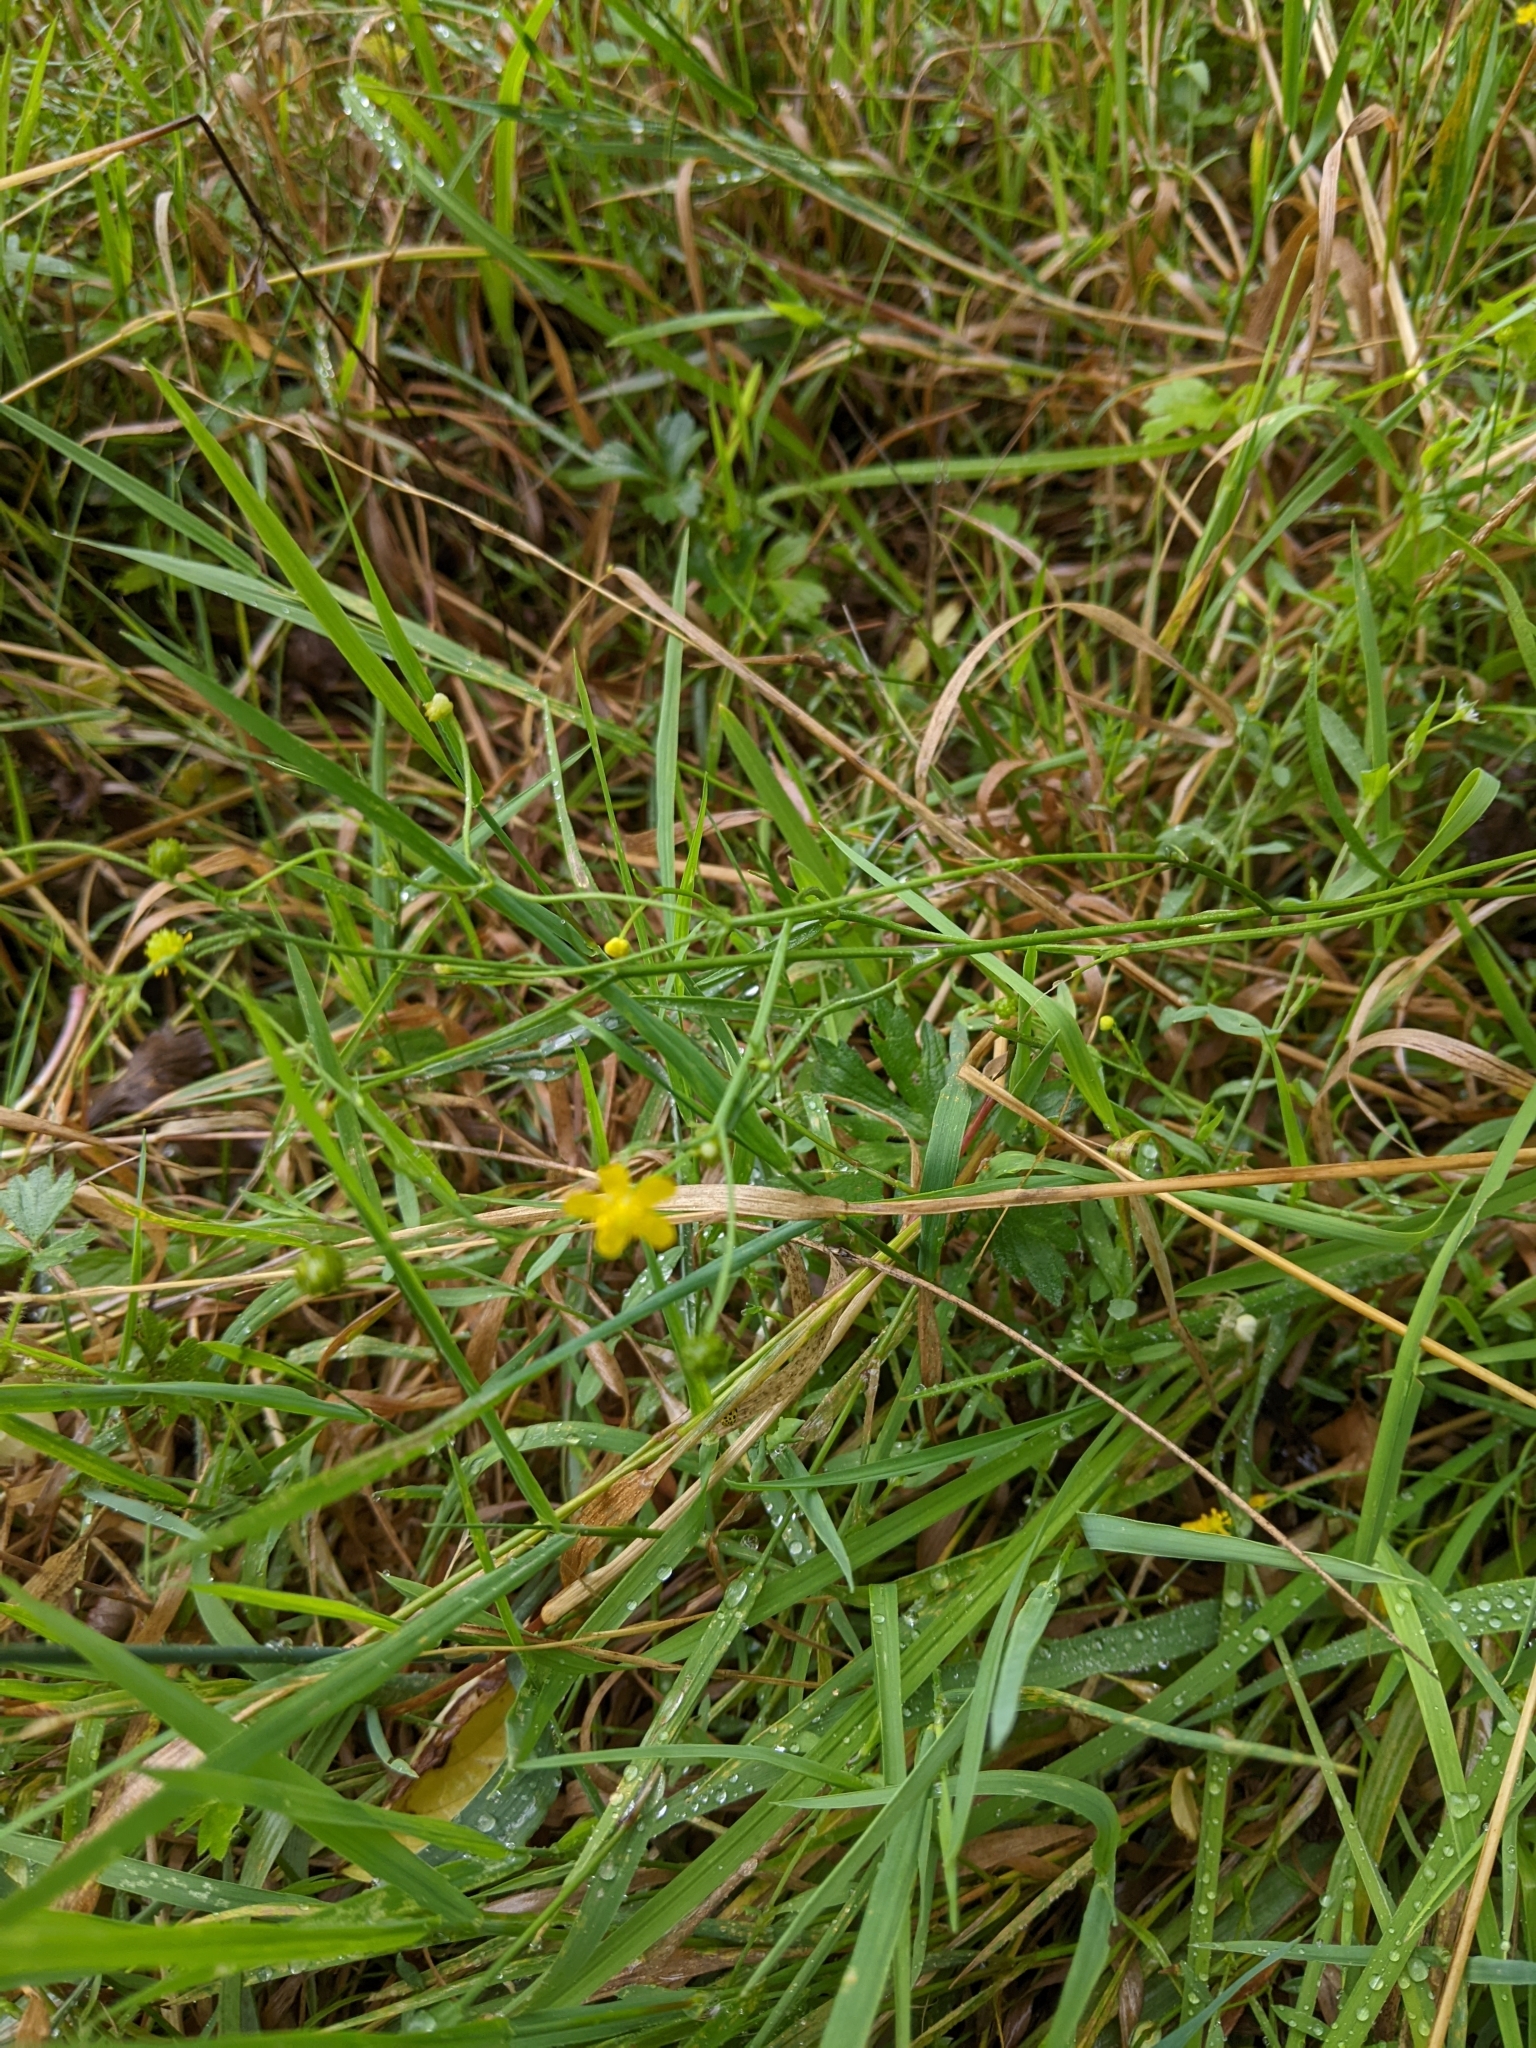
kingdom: Plantae
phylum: Tracheophyta
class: Magnoliopsida
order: Ranunculales
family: Ranunculaceae
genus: Ranunculus
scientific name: Ranunculus flammula
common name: Lesser spearwort
